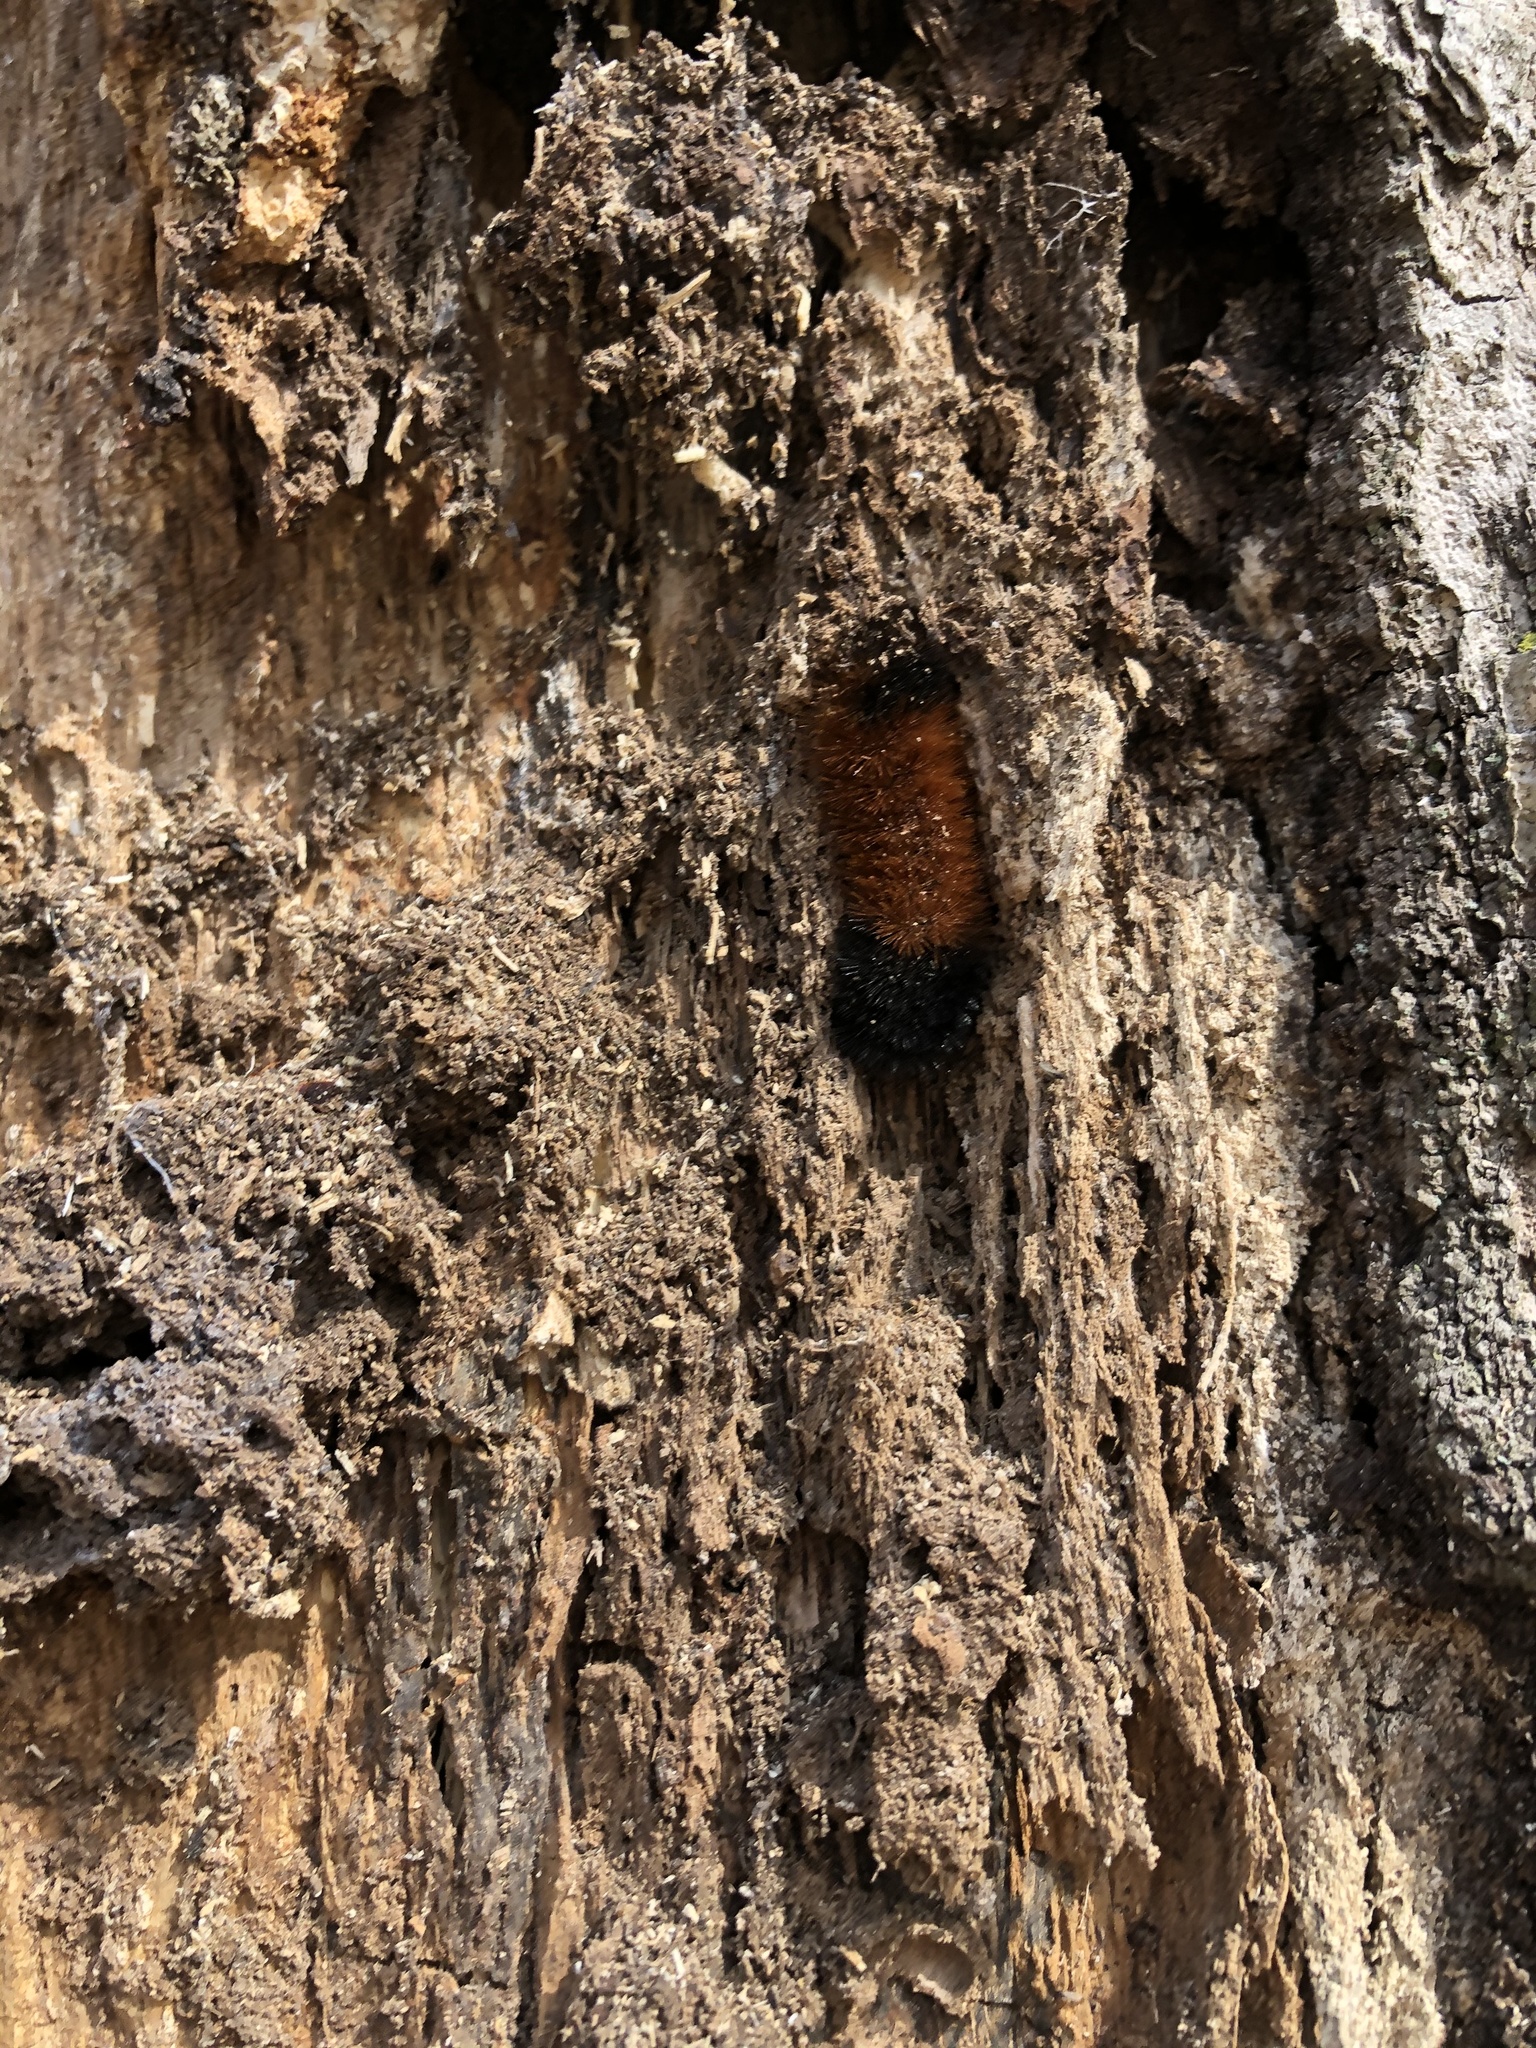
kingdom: Animalia
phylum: Arthropoda
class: Insecta
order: Lepidoptera
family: Erebidae
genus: Pyrrharctia
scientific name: Pyrrharctia isabella
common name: Isabella tiger moth
